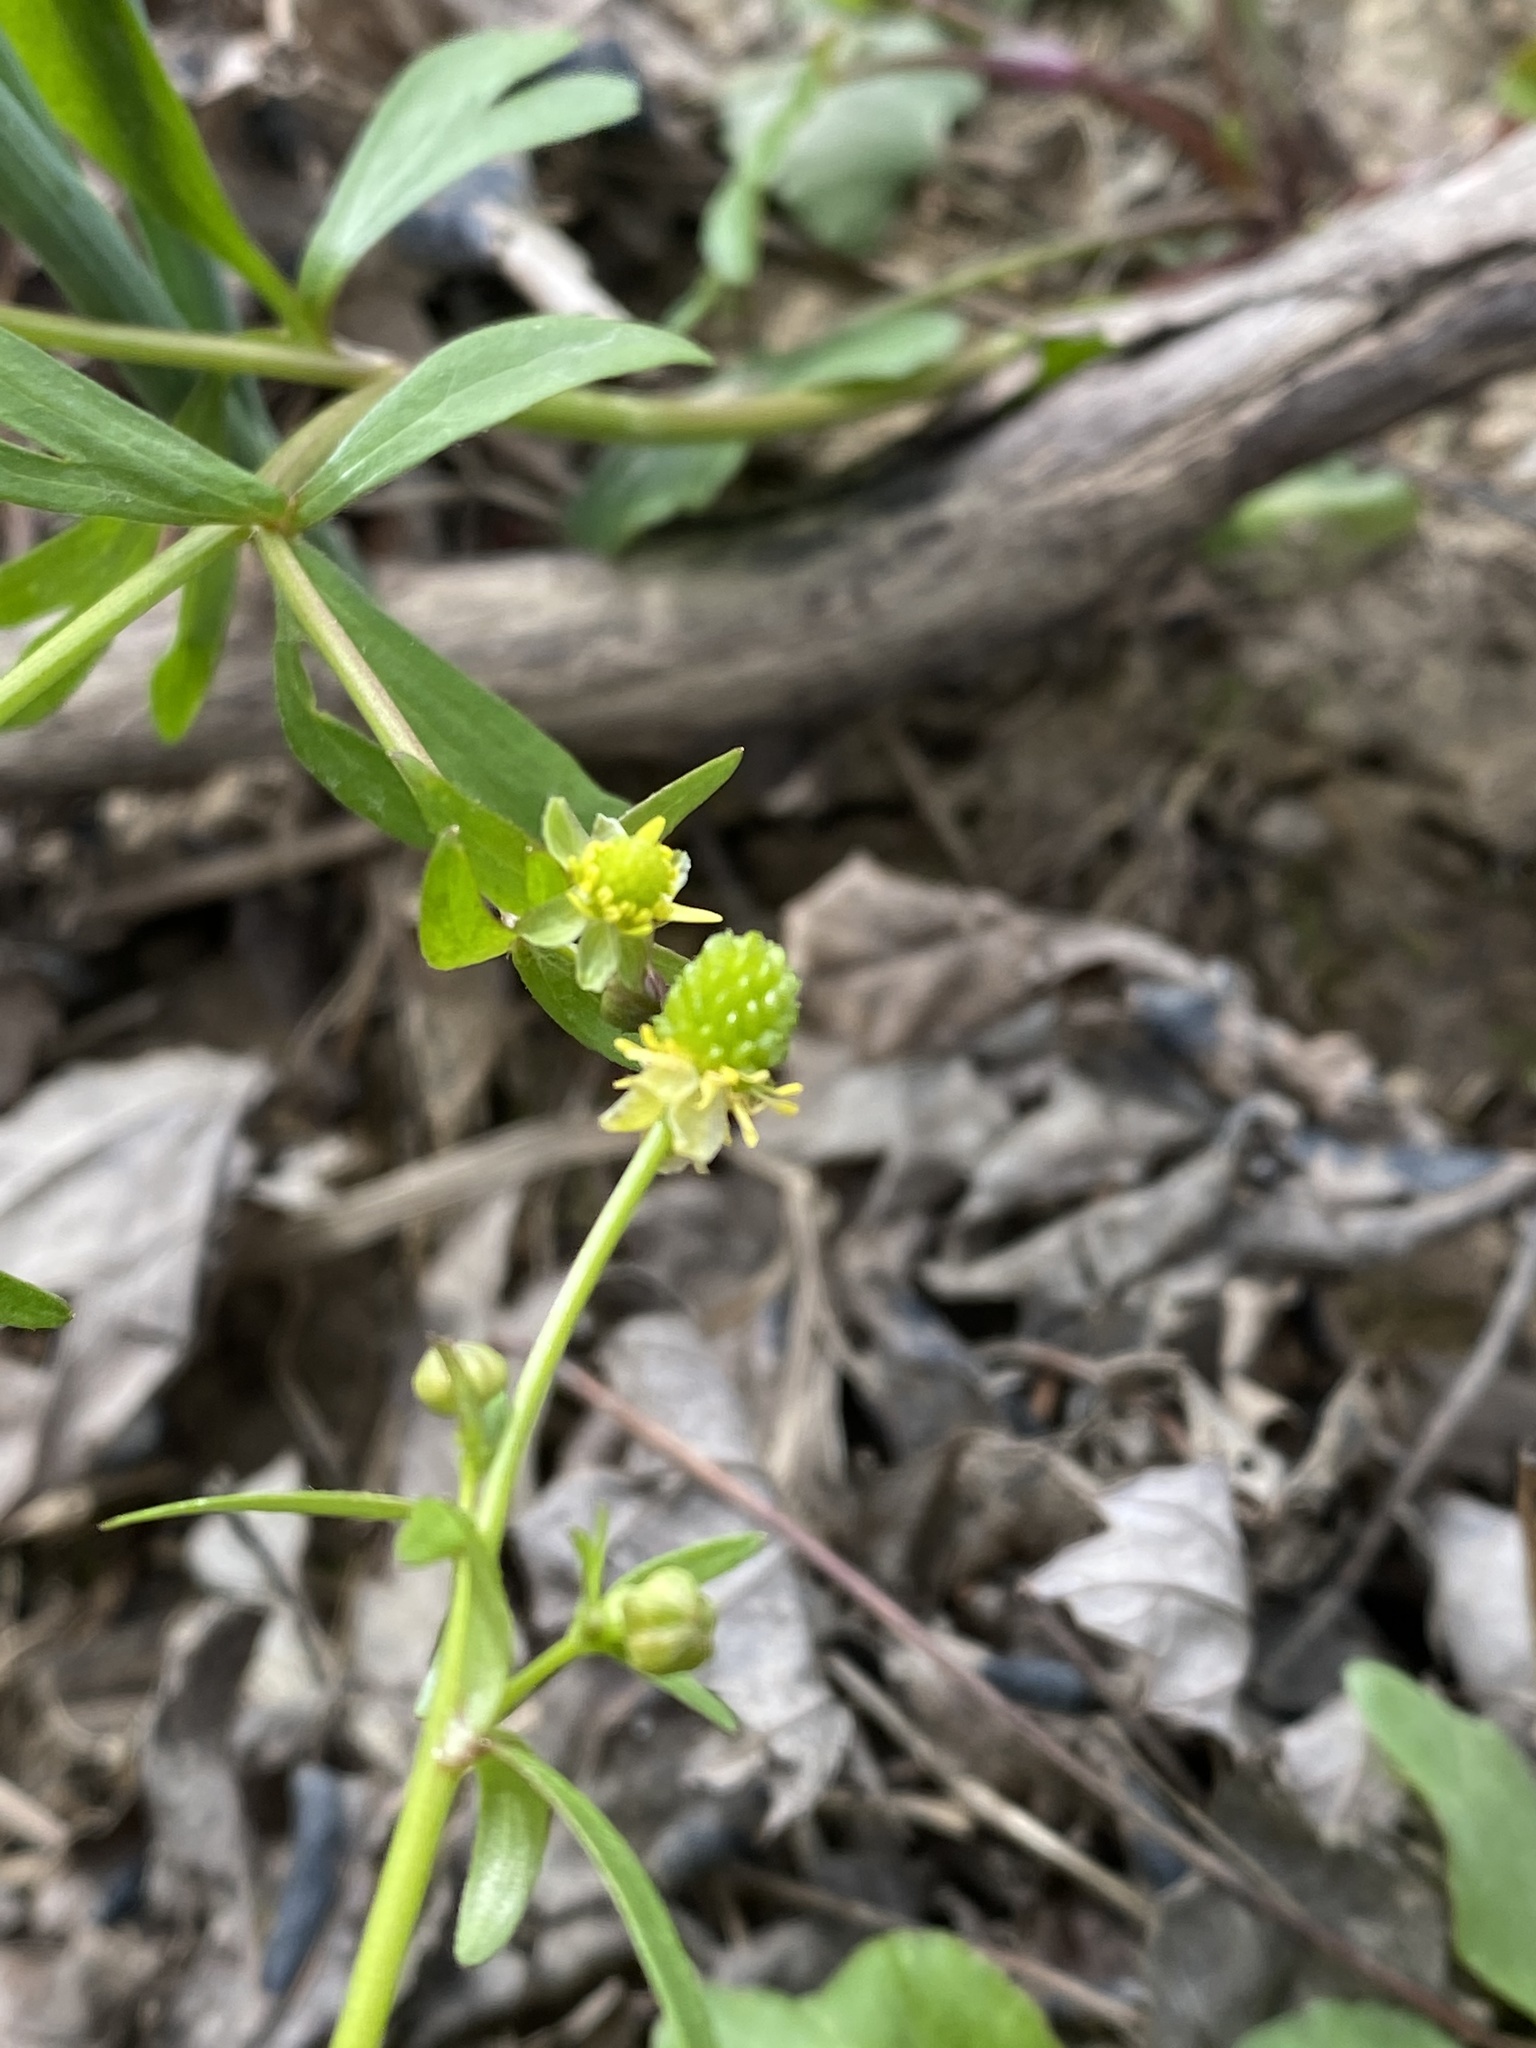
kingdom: Plantae
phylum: Tracheophyta
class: Magnoliopsida
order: Ranunculales
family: Ranunculaceae
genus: Ranunculus
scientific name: Ranunculus abortivus
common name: Early wood buttercup
